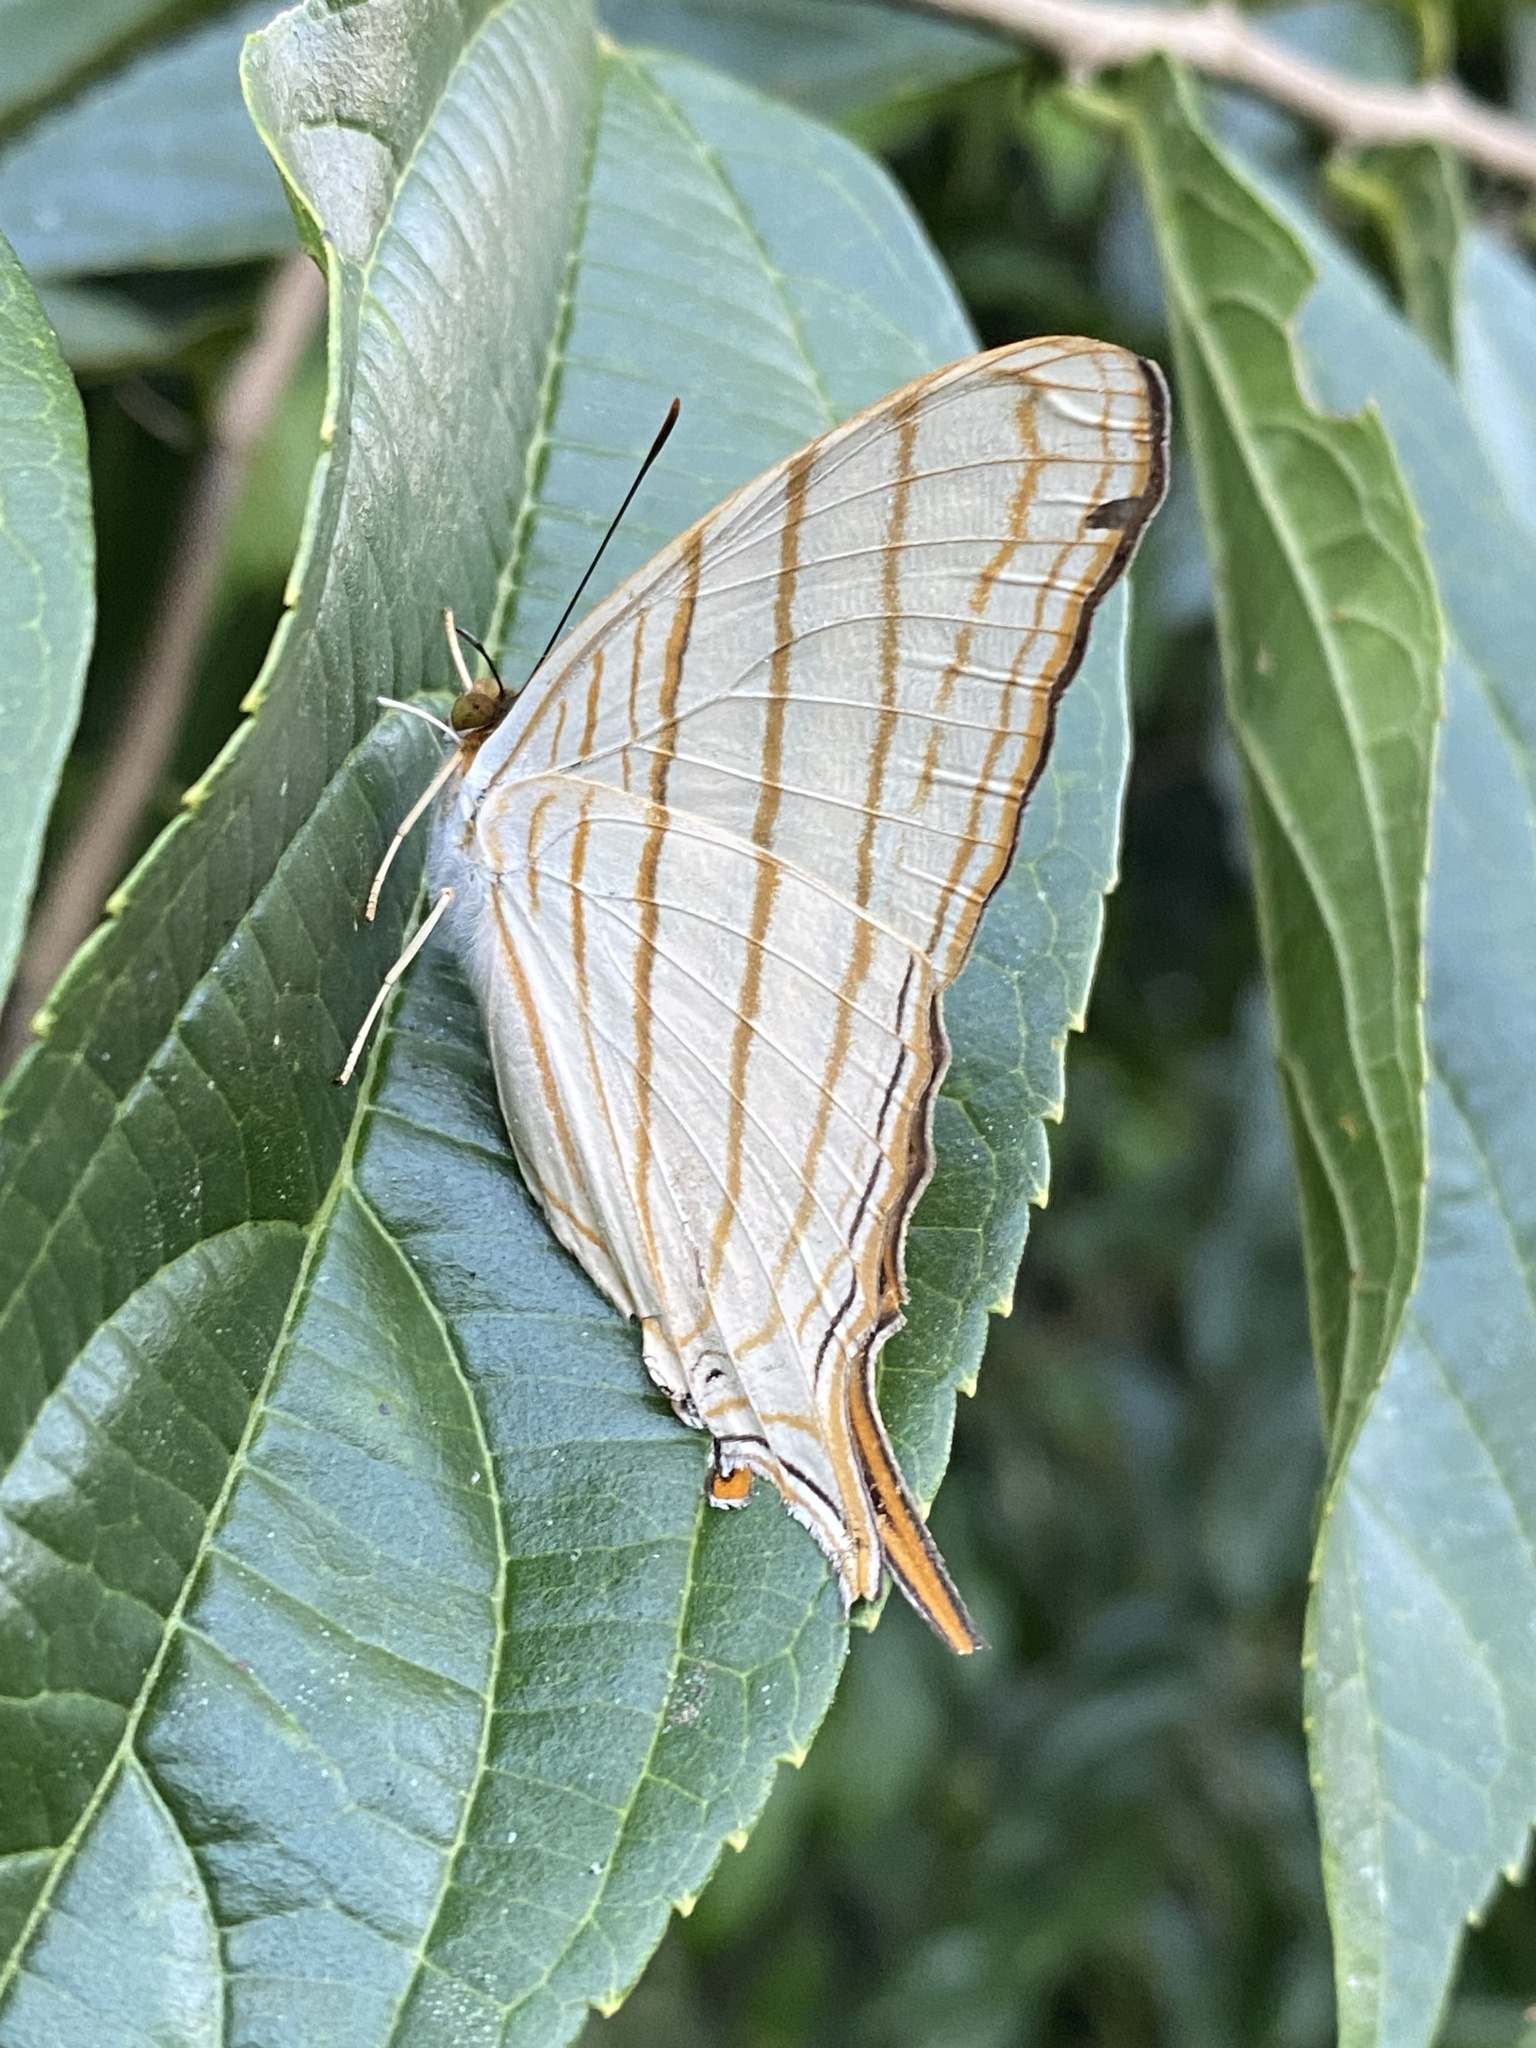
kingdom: Animalia
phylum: Arthropoda
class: Insecta
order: Lepidoptera
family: Nymphalidae
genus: Marpesia
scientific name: Marpesia berania
